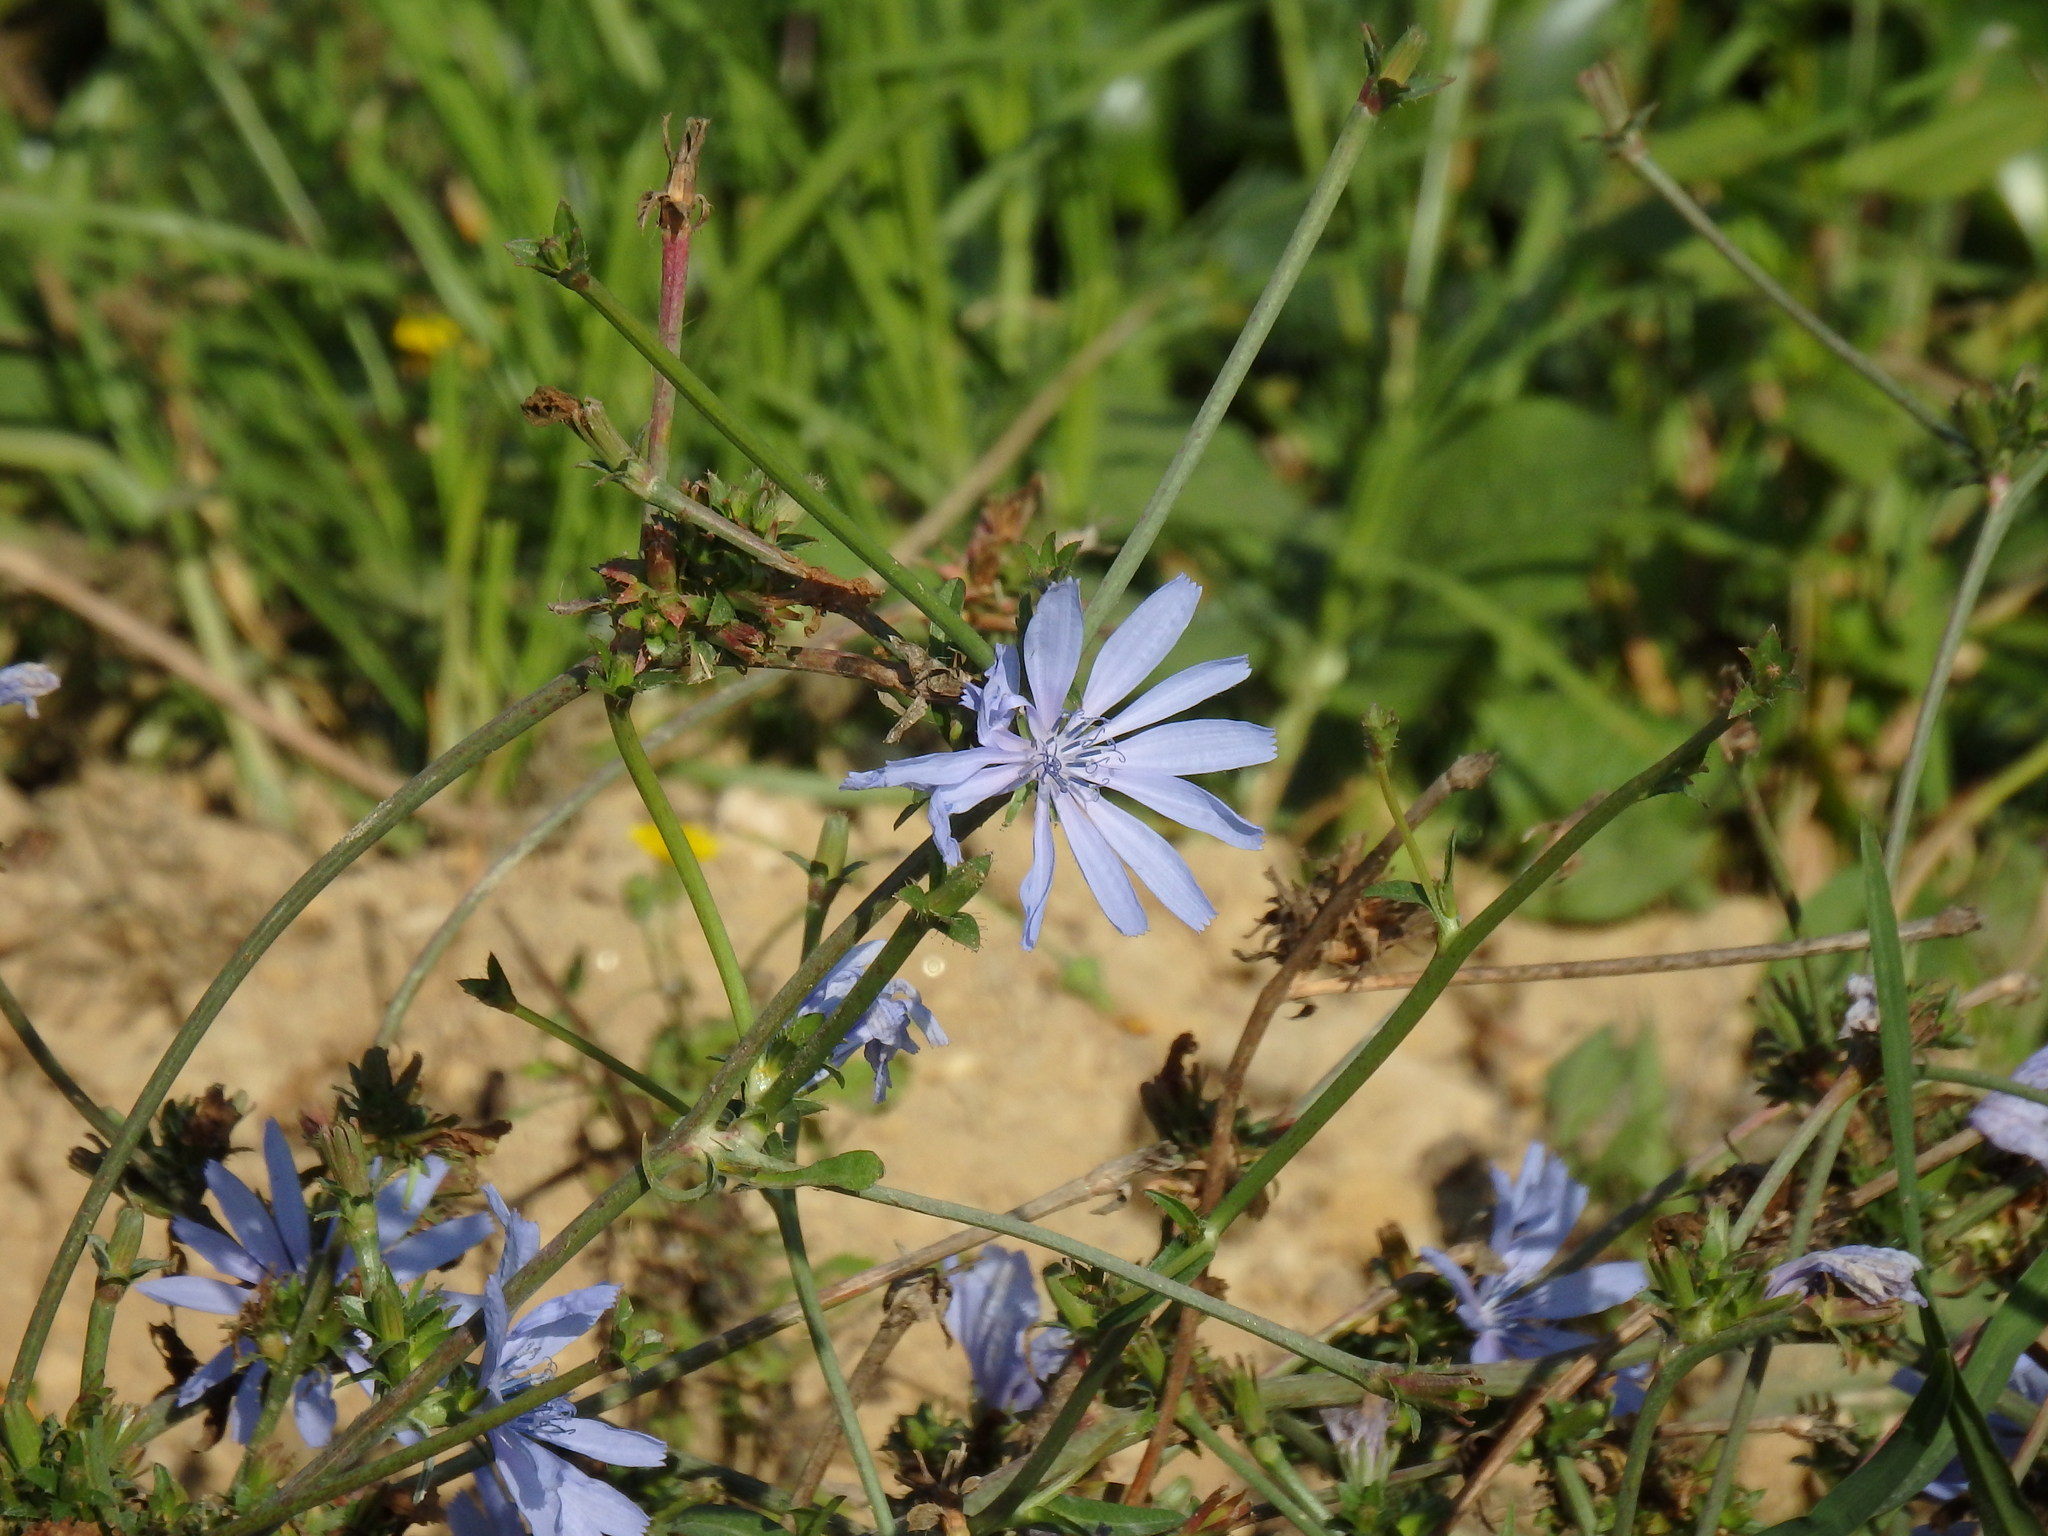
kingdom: Plantae
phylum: Tracheophyta
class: Magnoliopsida
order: Asterales
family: Asteraceae
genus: Cichorium
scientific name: Cichorium intybus
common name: Chicory
